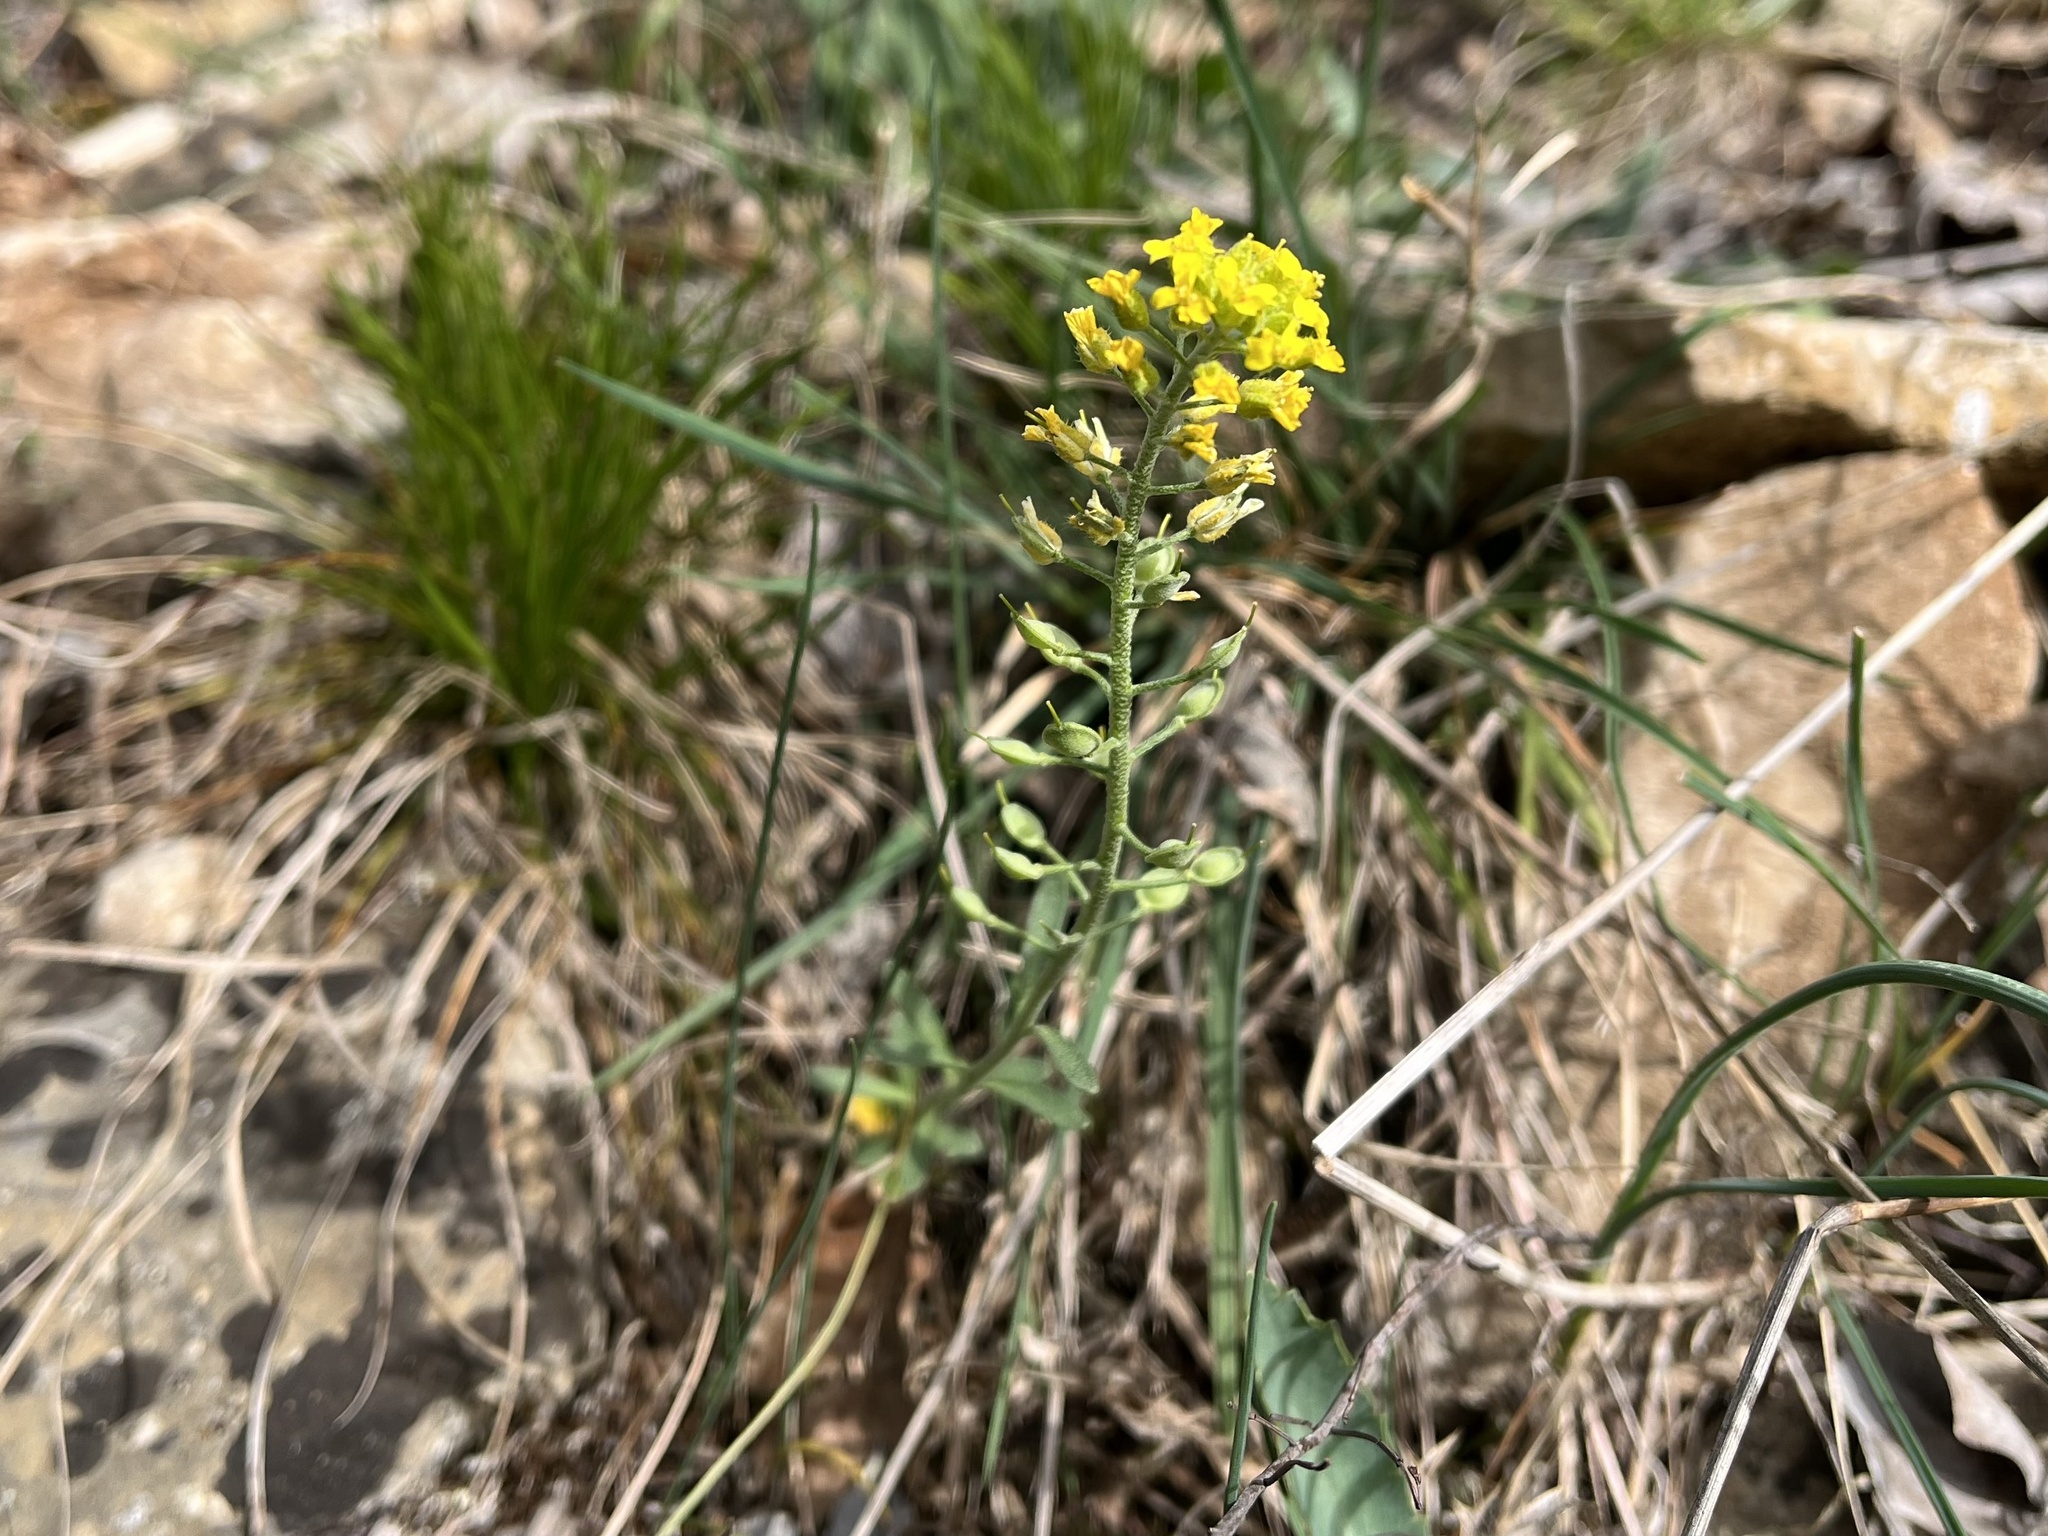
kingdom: Plantae
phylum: Tracheophyta
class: Magnoliopsida
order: Brassicales
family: Brassicaceae
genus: Alyssum
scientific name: Alyssum gmelinii
